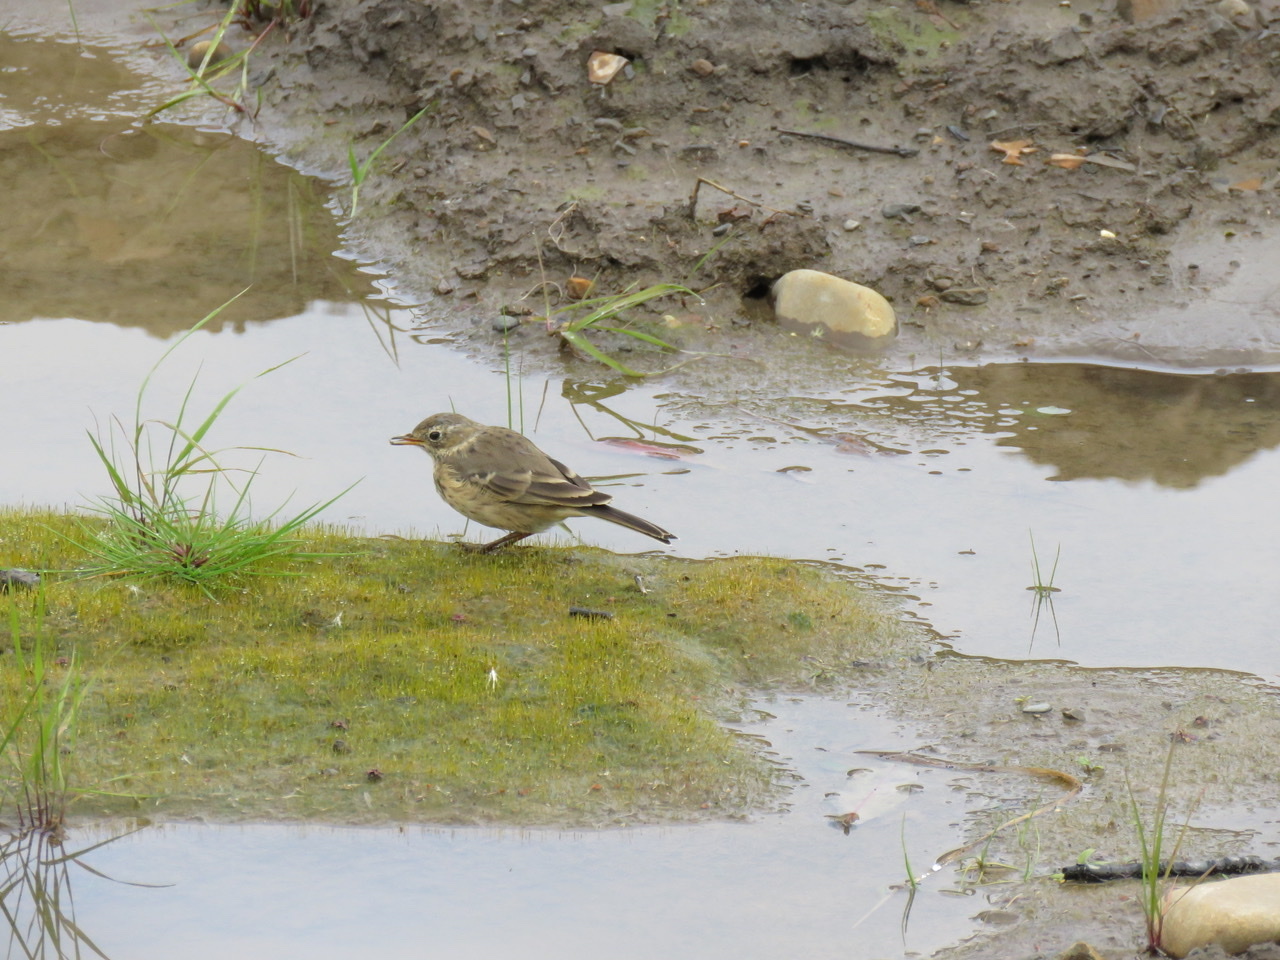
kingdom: Animalia
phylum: Chordata
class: Aves
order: Passeriformes
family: Motacillidae
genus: Anthus
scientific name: Anthus rubescens
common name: Buff-bellied pipit
